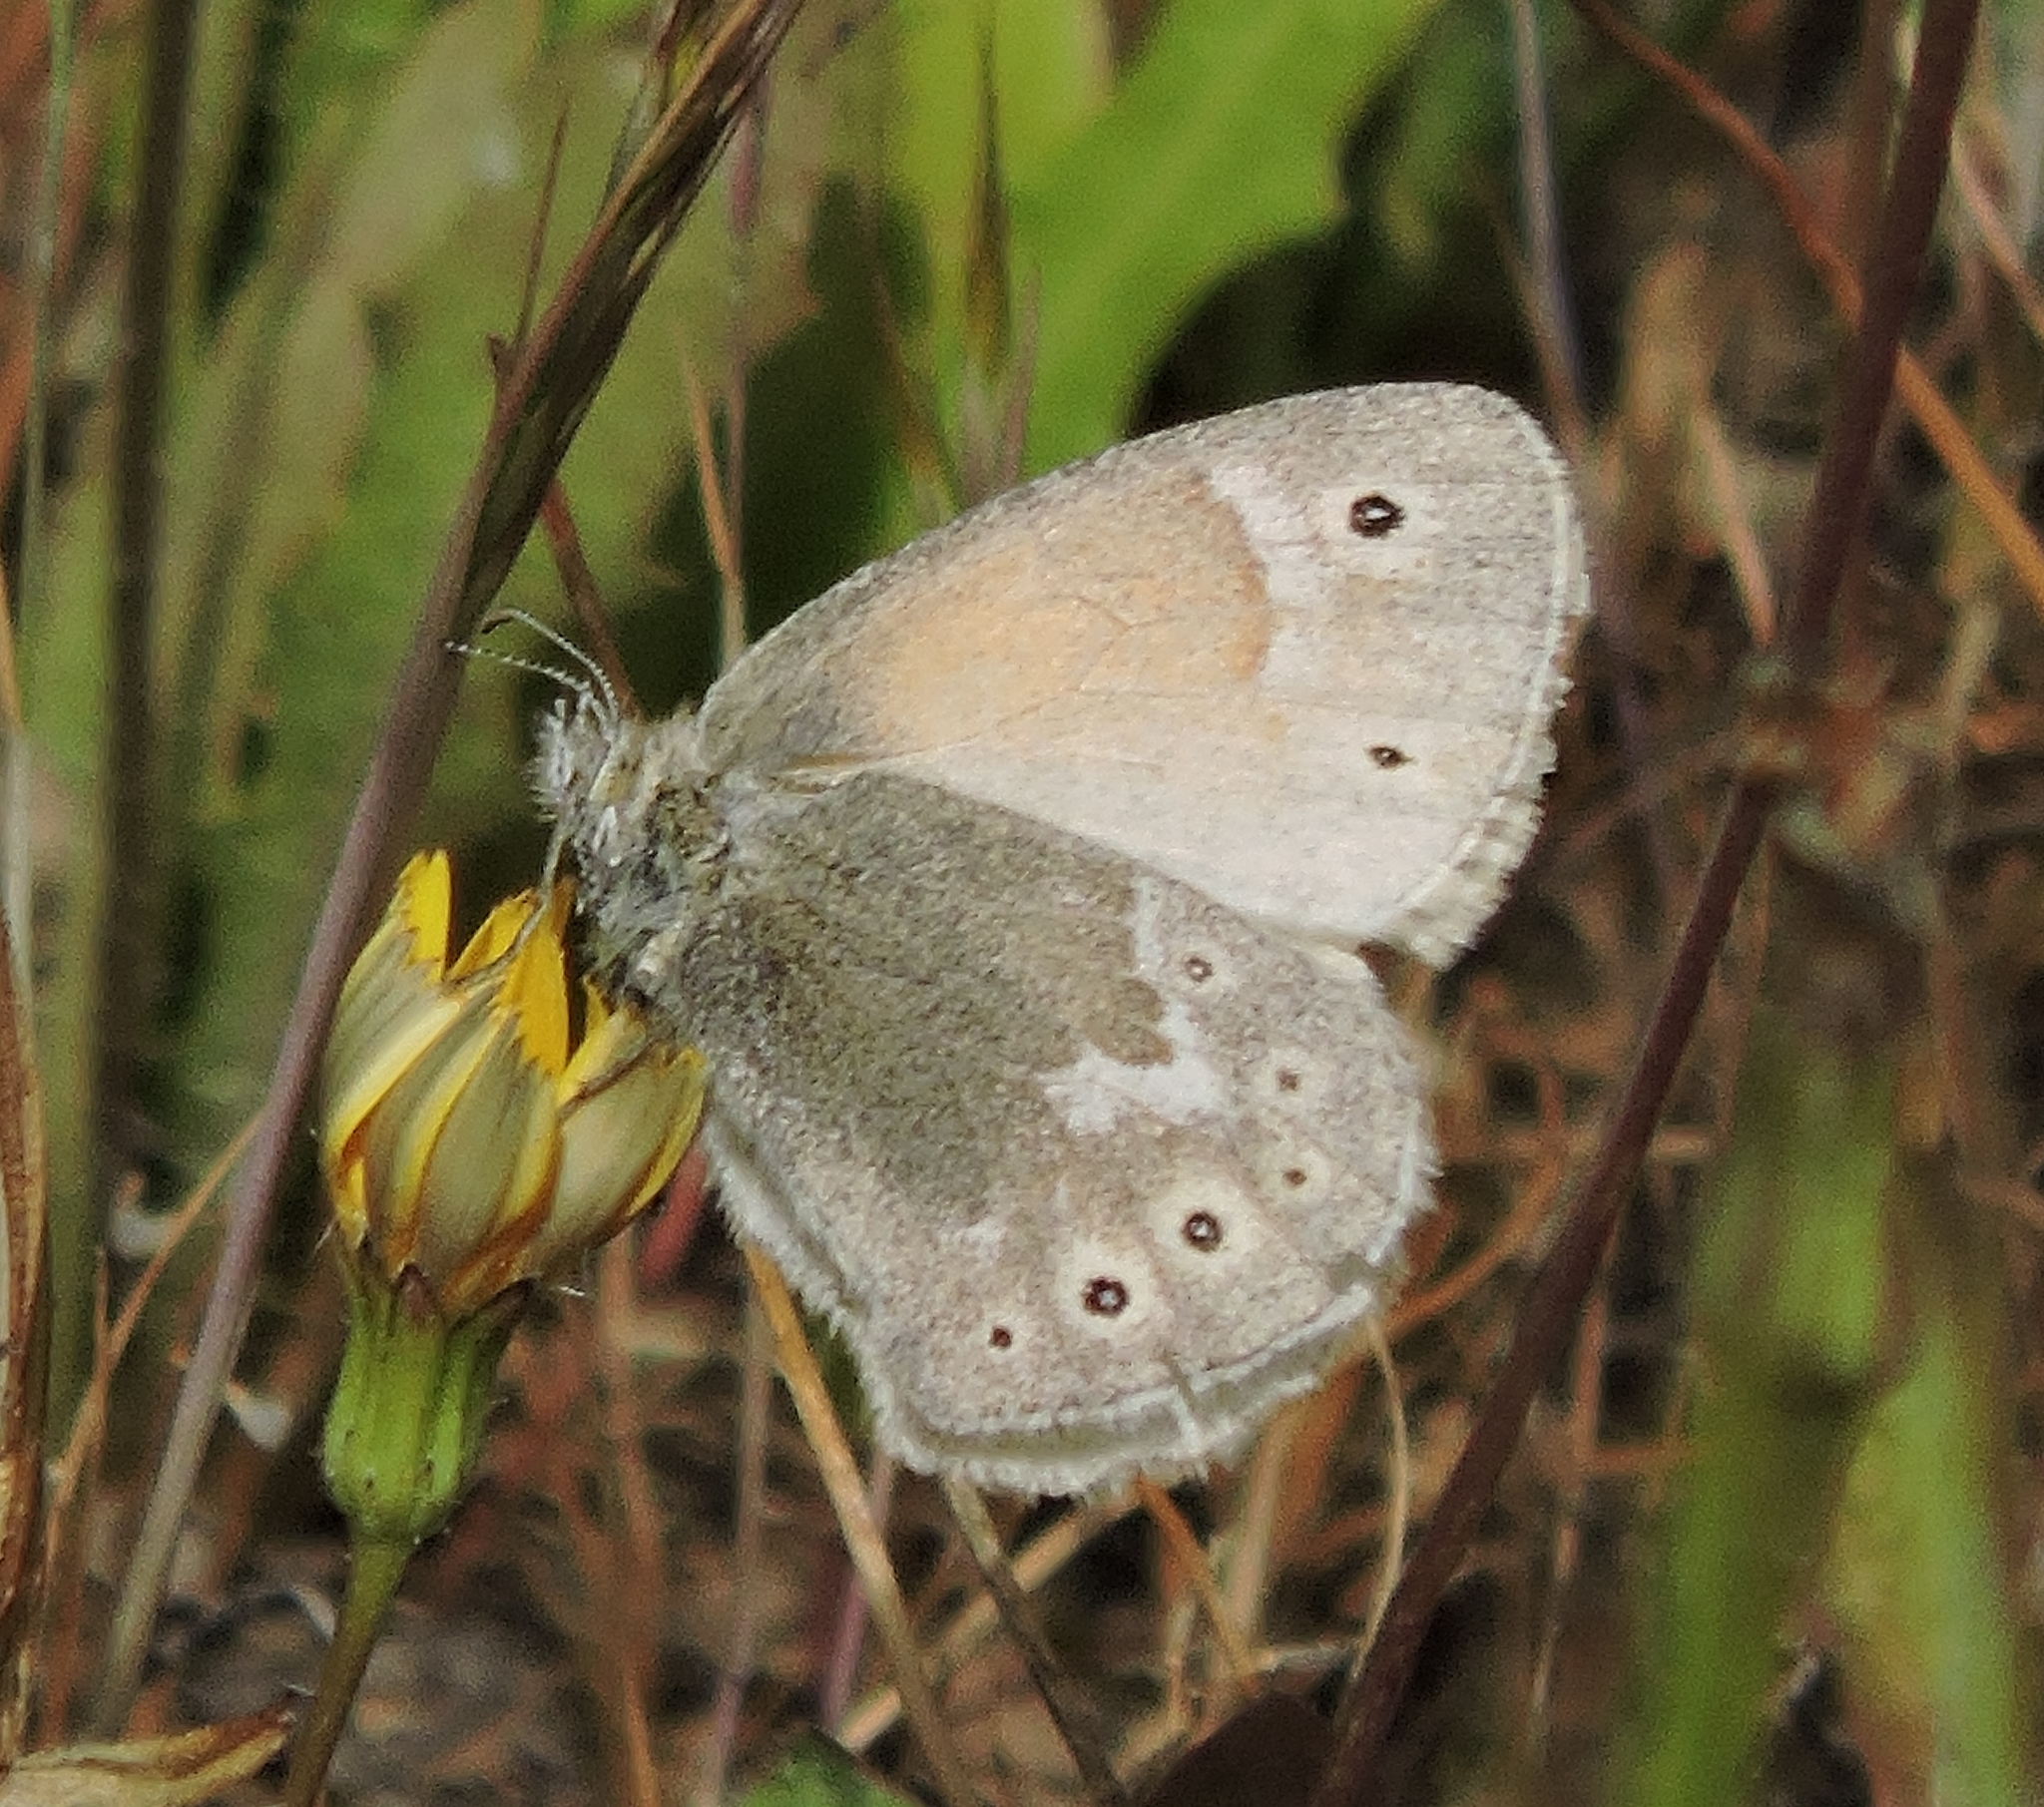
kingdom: Animalia
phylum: Arthropoda
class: Insecta
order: Lepidoptera
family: Nymphalidae
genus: Coenonympha
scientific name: Coenonympha california
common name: Common ringlet
